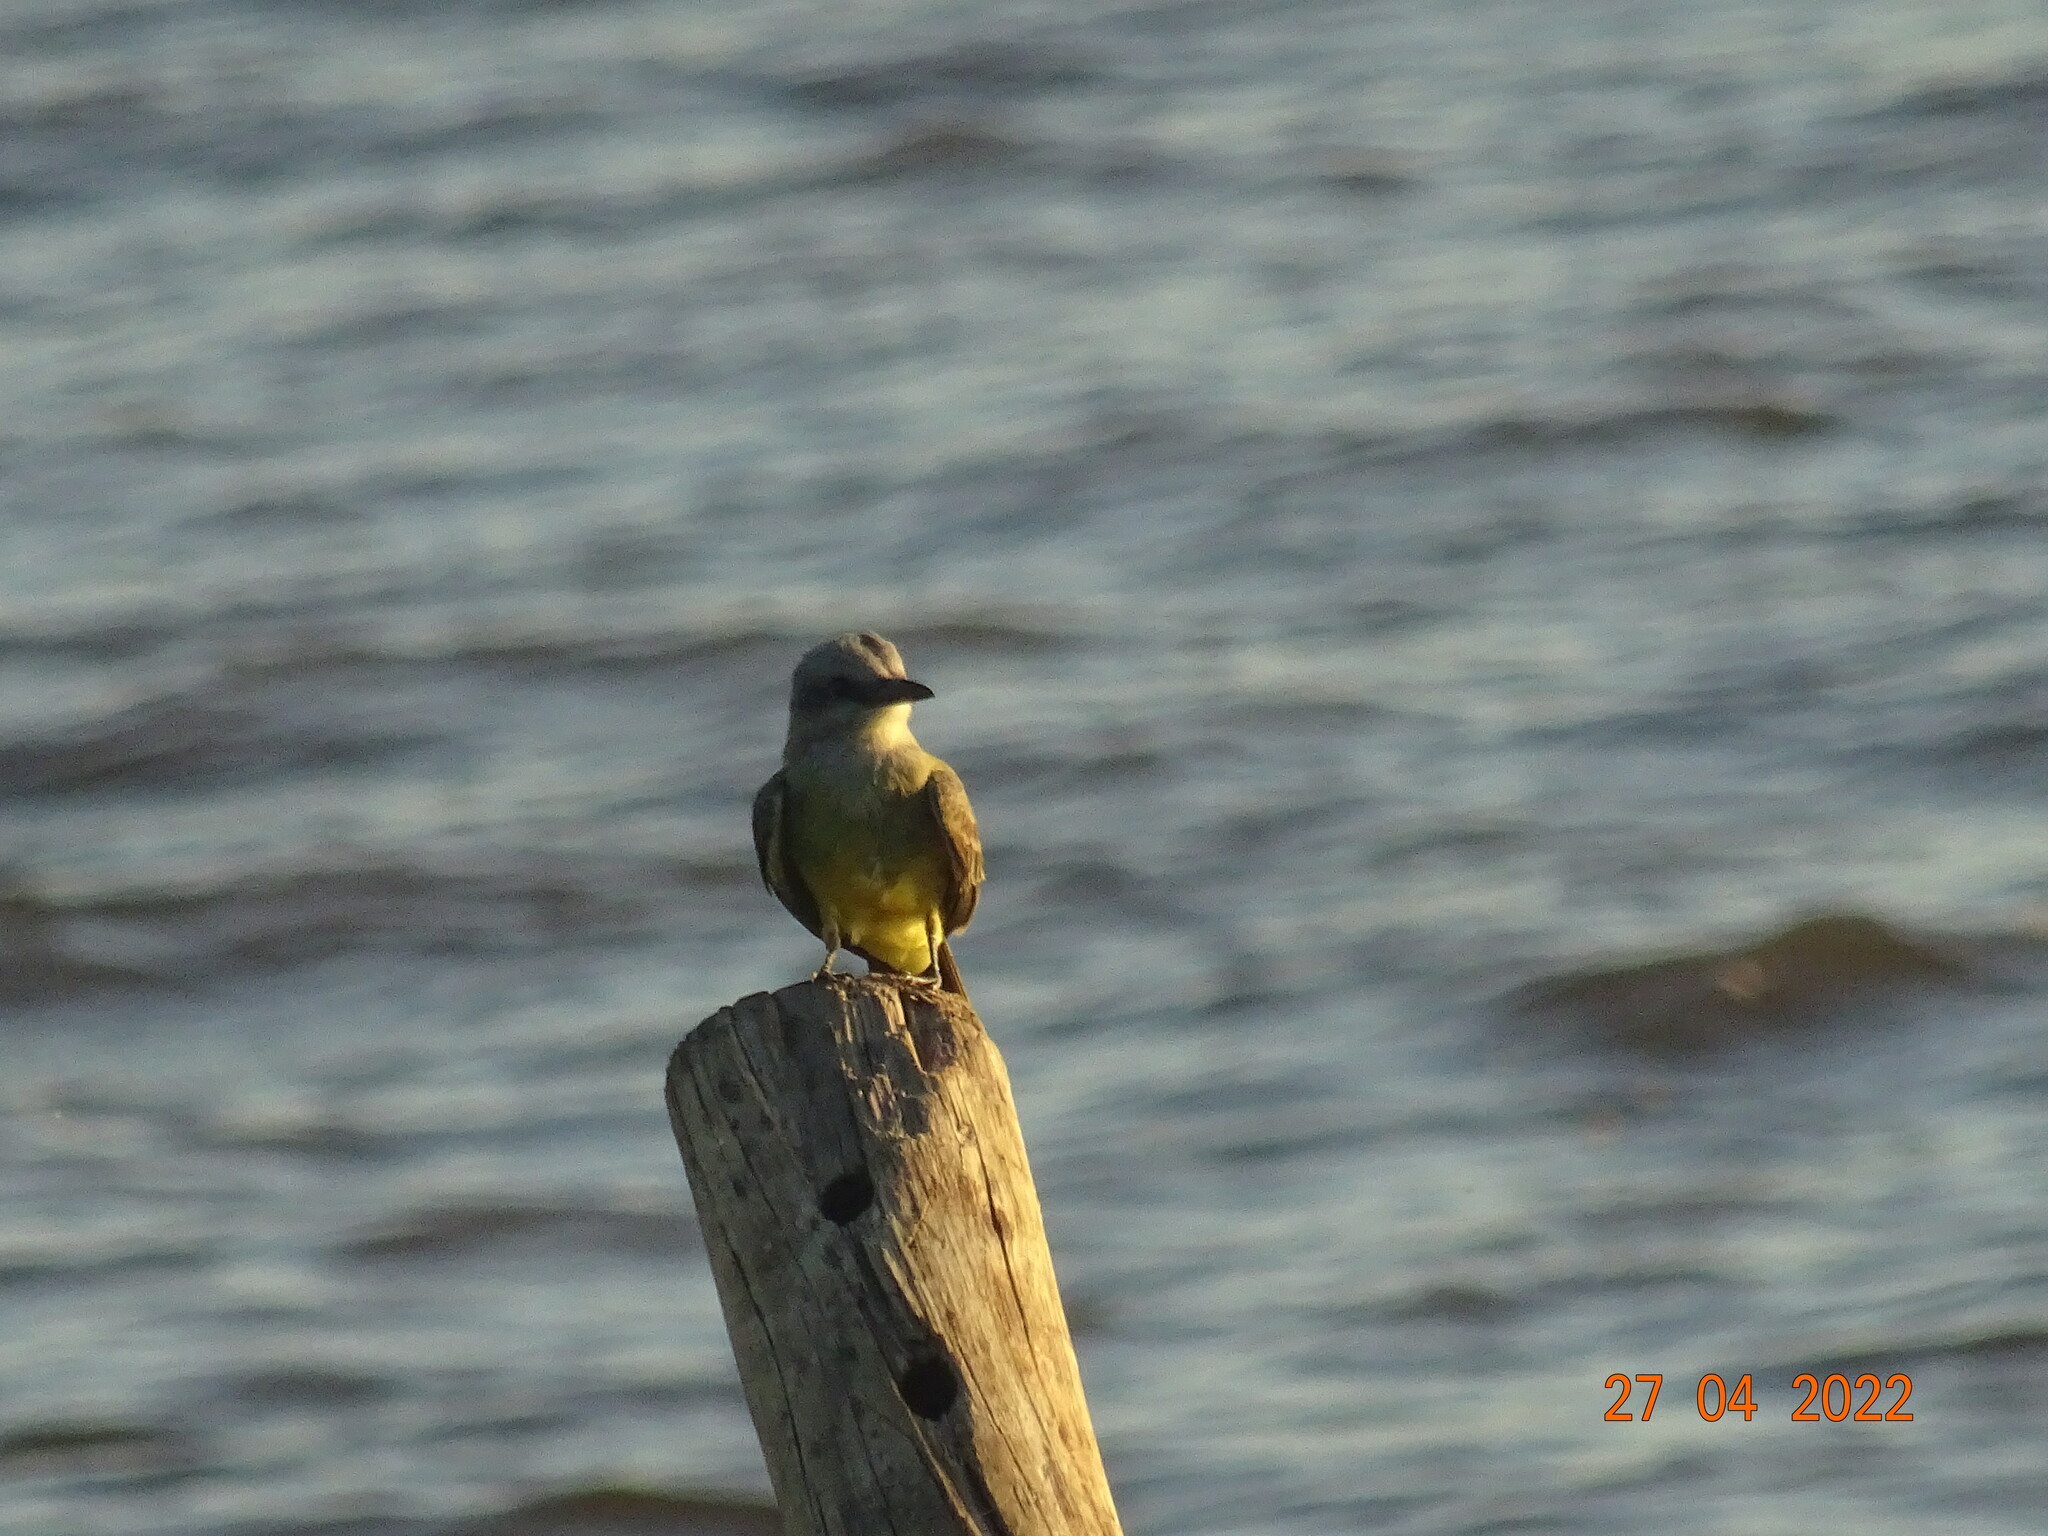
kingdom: Animalia
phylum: Chordata
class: Aves
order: Passeriformes
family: Tyrannidae
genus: Tyrannus
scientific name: Tyrannus melancholicus
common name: Tropical kingbird
